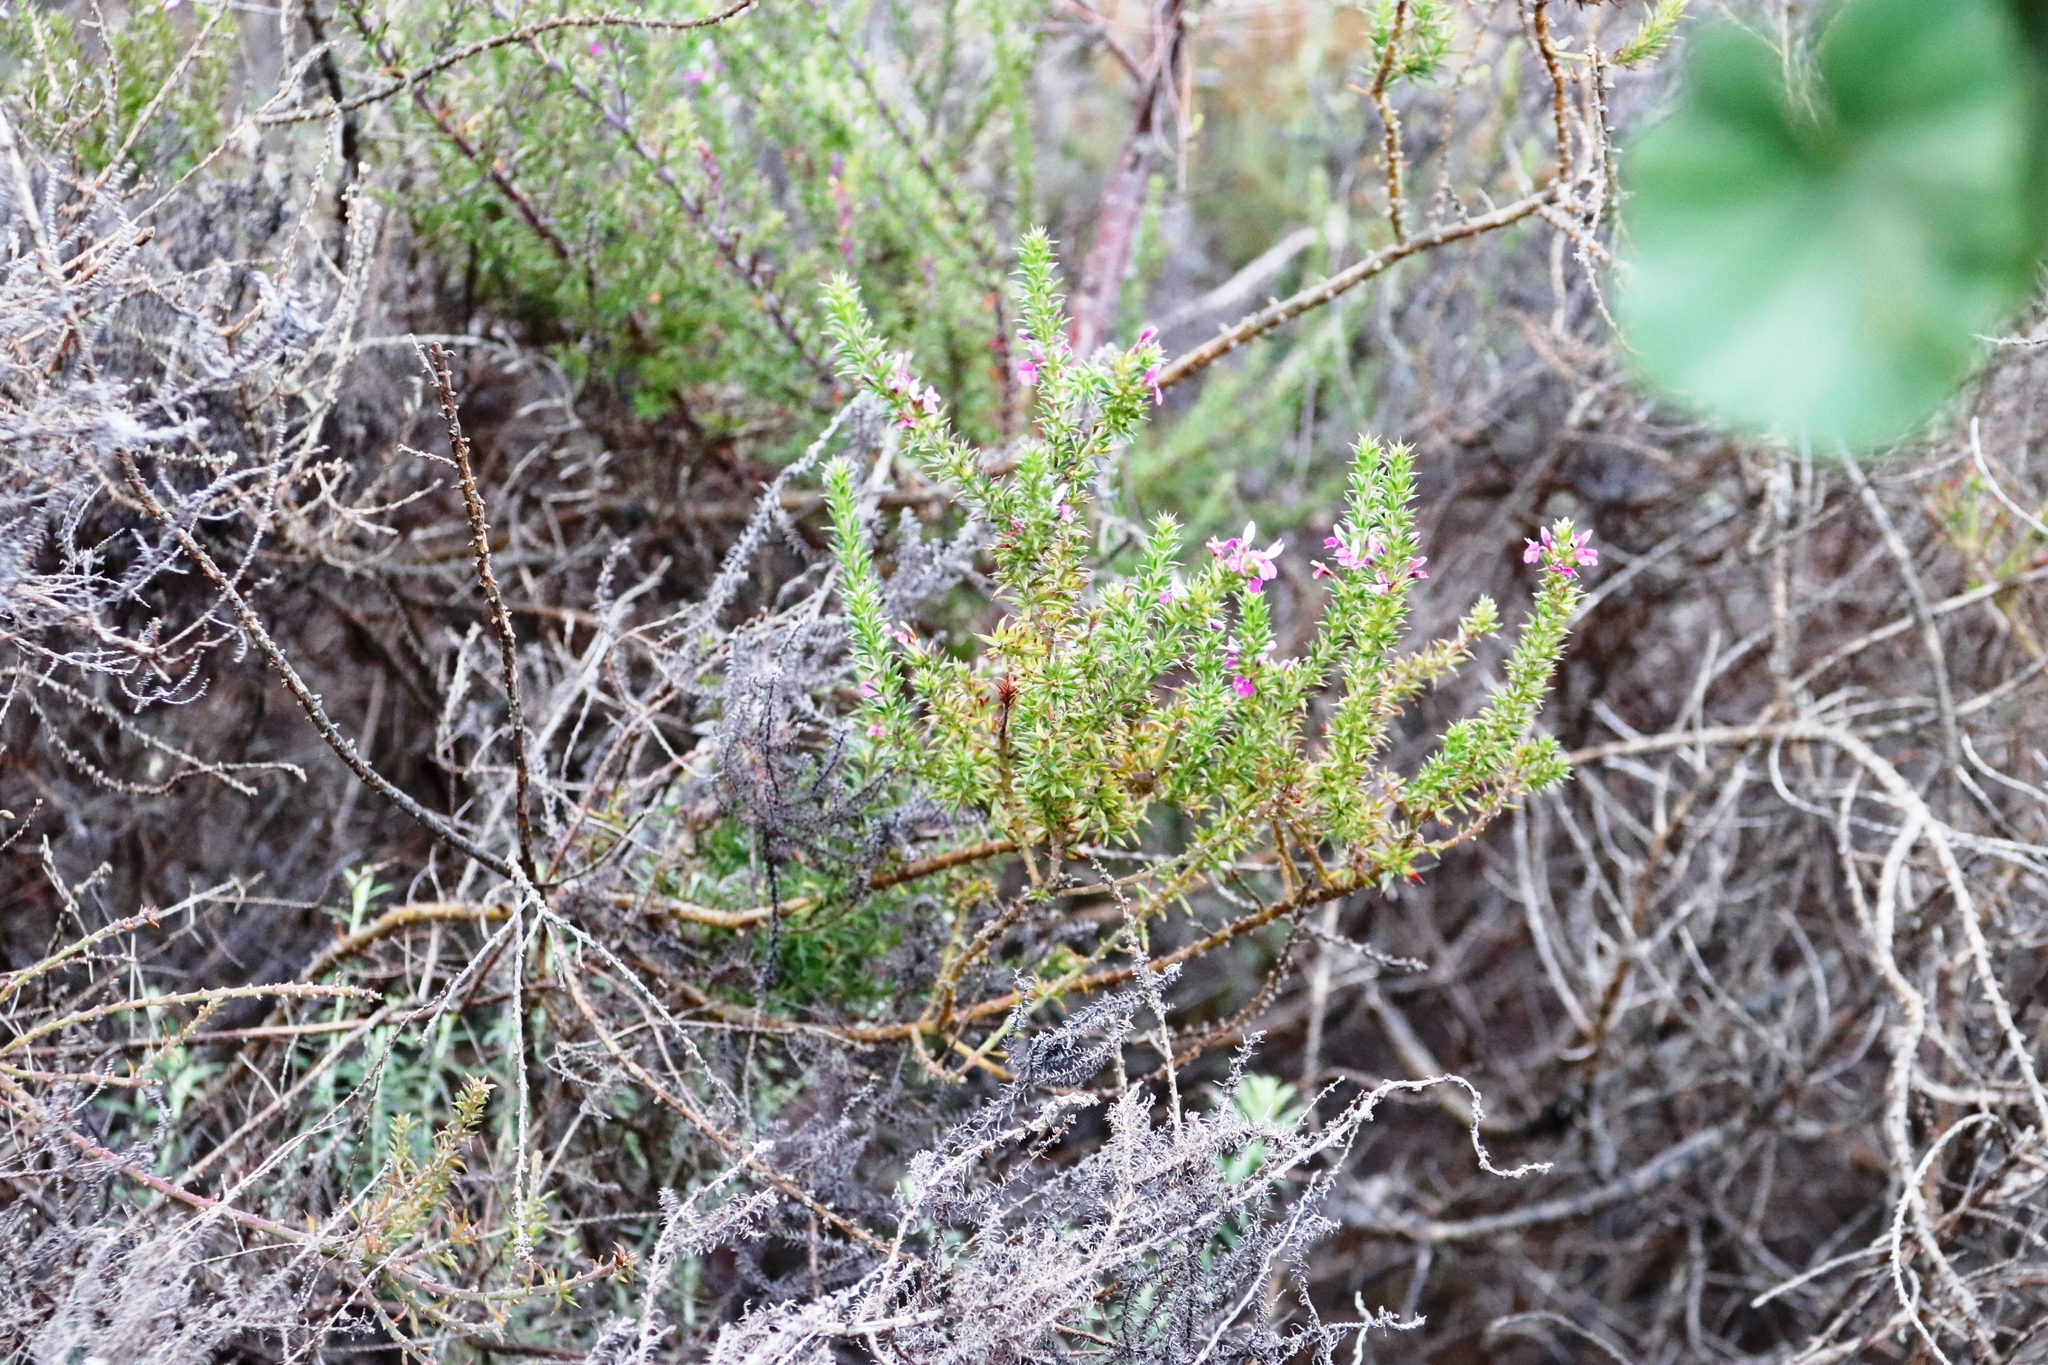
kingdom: Plantae
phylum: Tracheophyta
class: Magnoliopsida
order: Fabales
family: Polygalaceae
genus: Muraltia
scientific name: Muraltia heisteria
